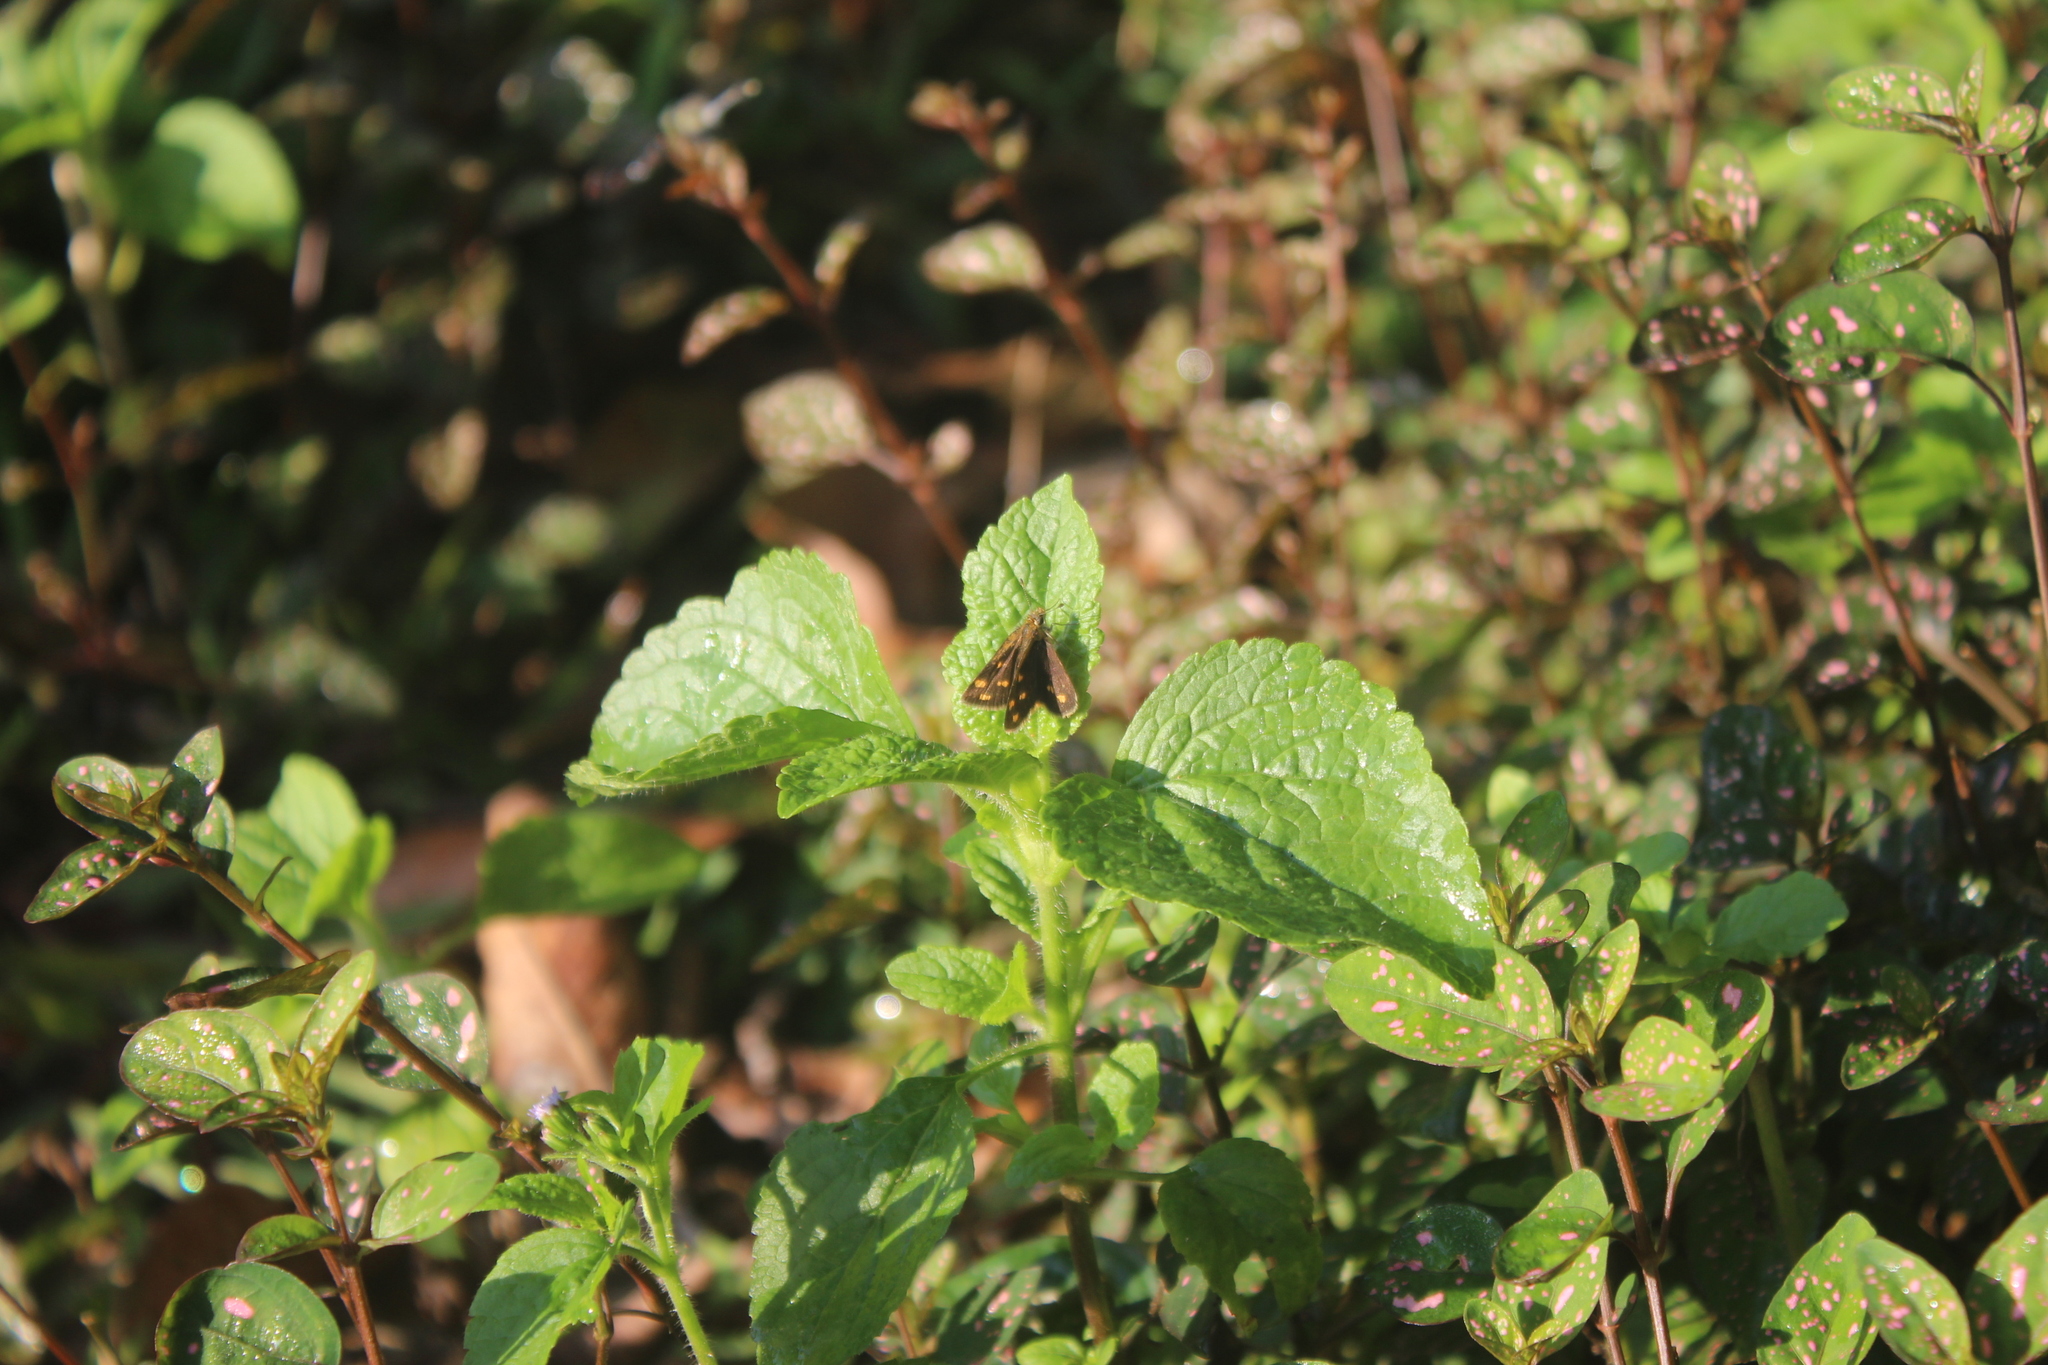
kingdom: Animalia
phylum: Arthropoda
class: Insecta
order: Lepidoptera
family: Hesperiidae
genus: Taractrocera
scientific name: Taractrocera ceramas
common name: Tamil grass dart
